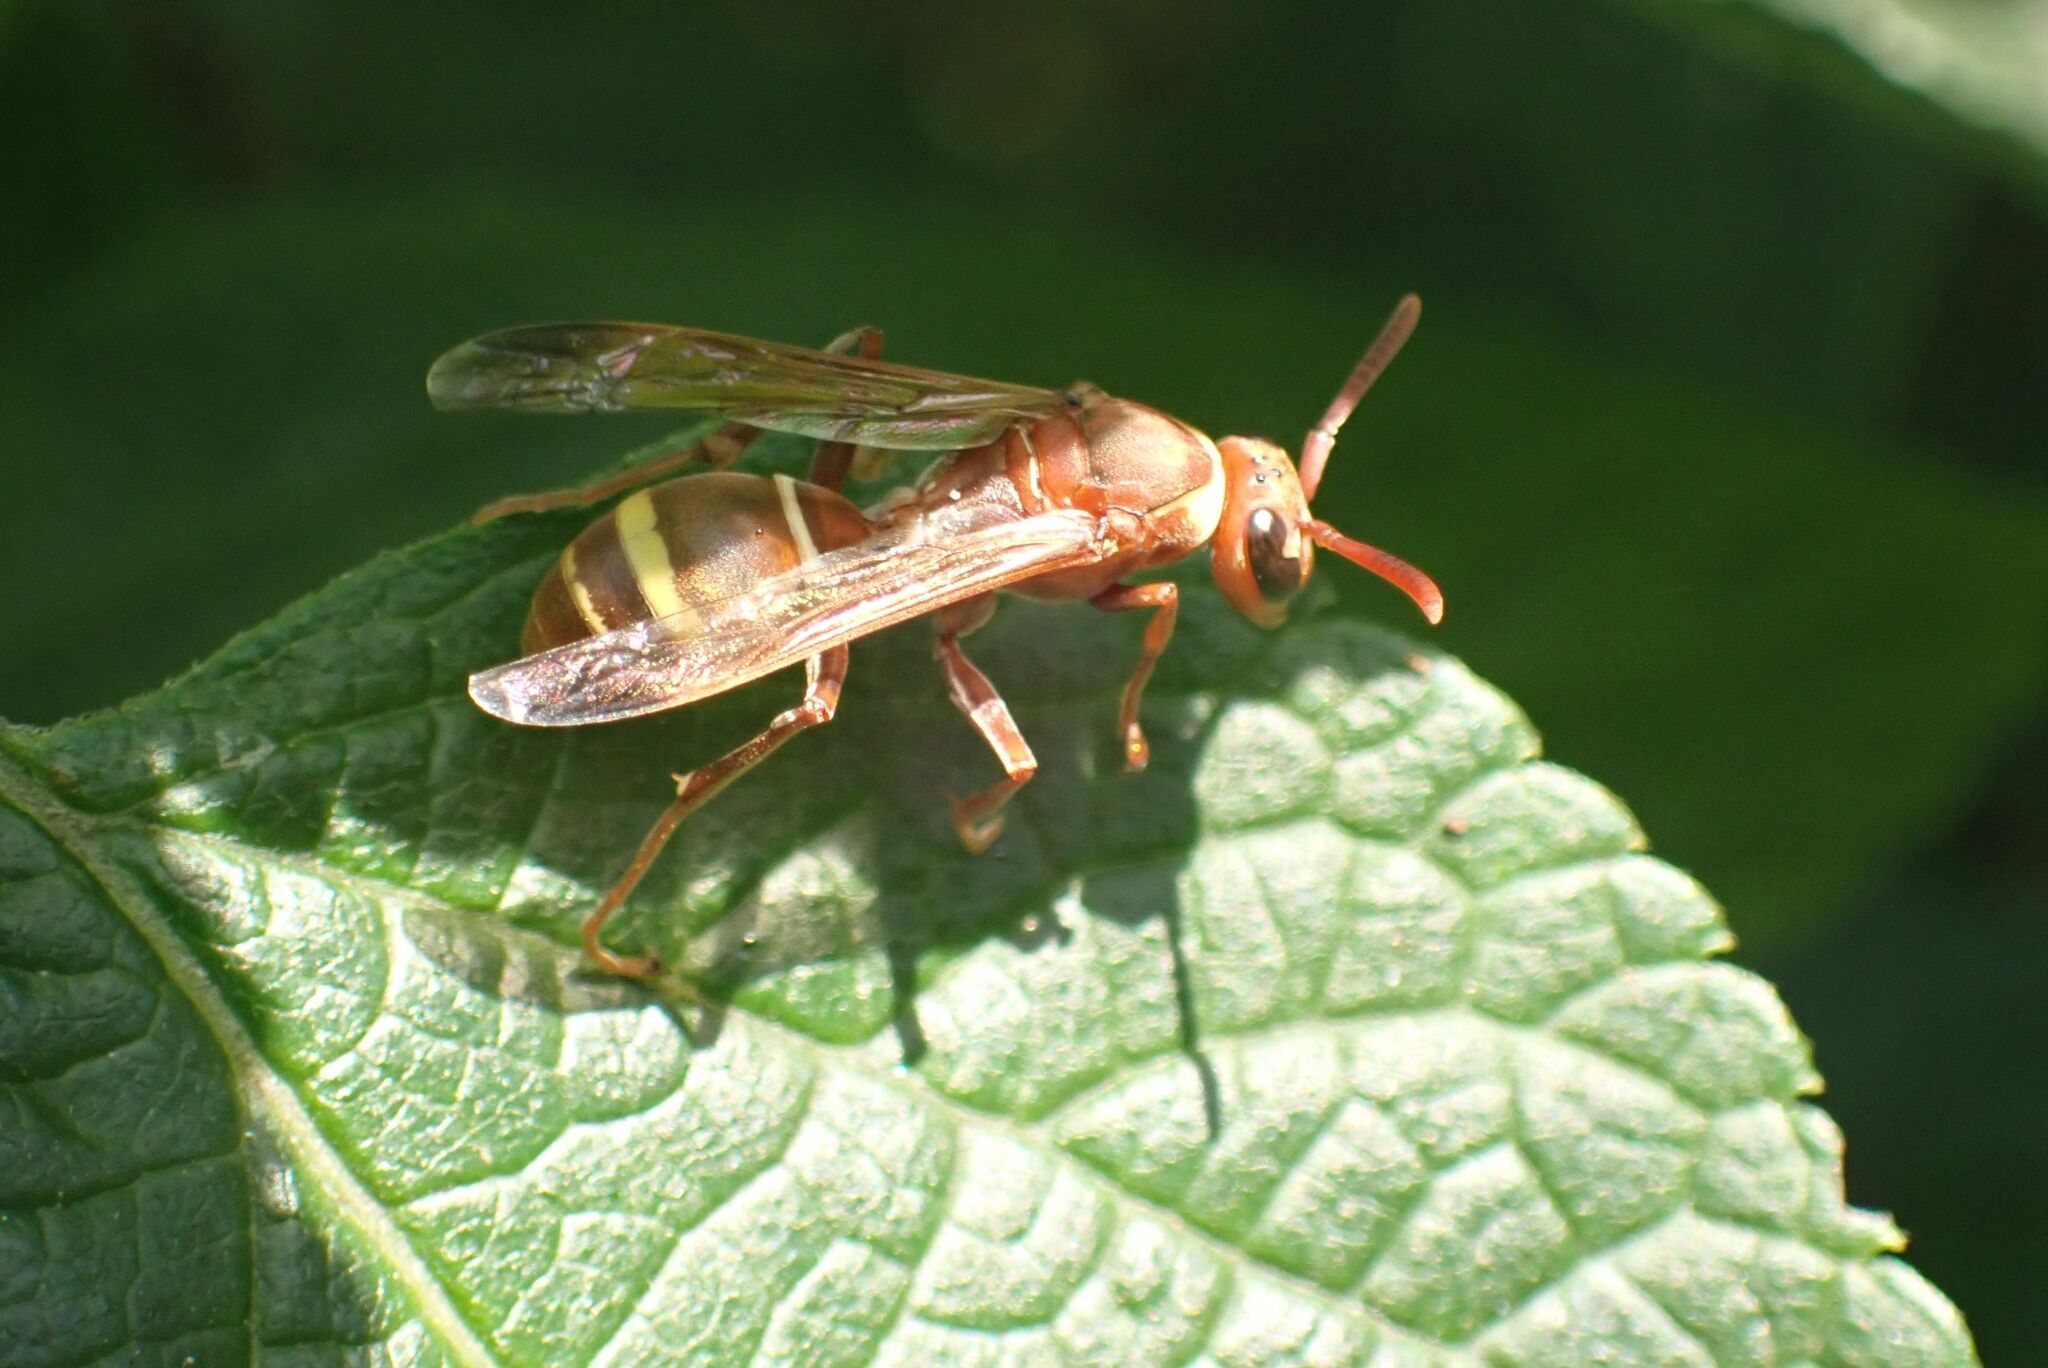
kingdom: Animalia
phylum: Arthropoda
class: Insecta
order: Hymenoptera
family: Eumenidae
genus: Polistes
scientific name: Polistes badius
